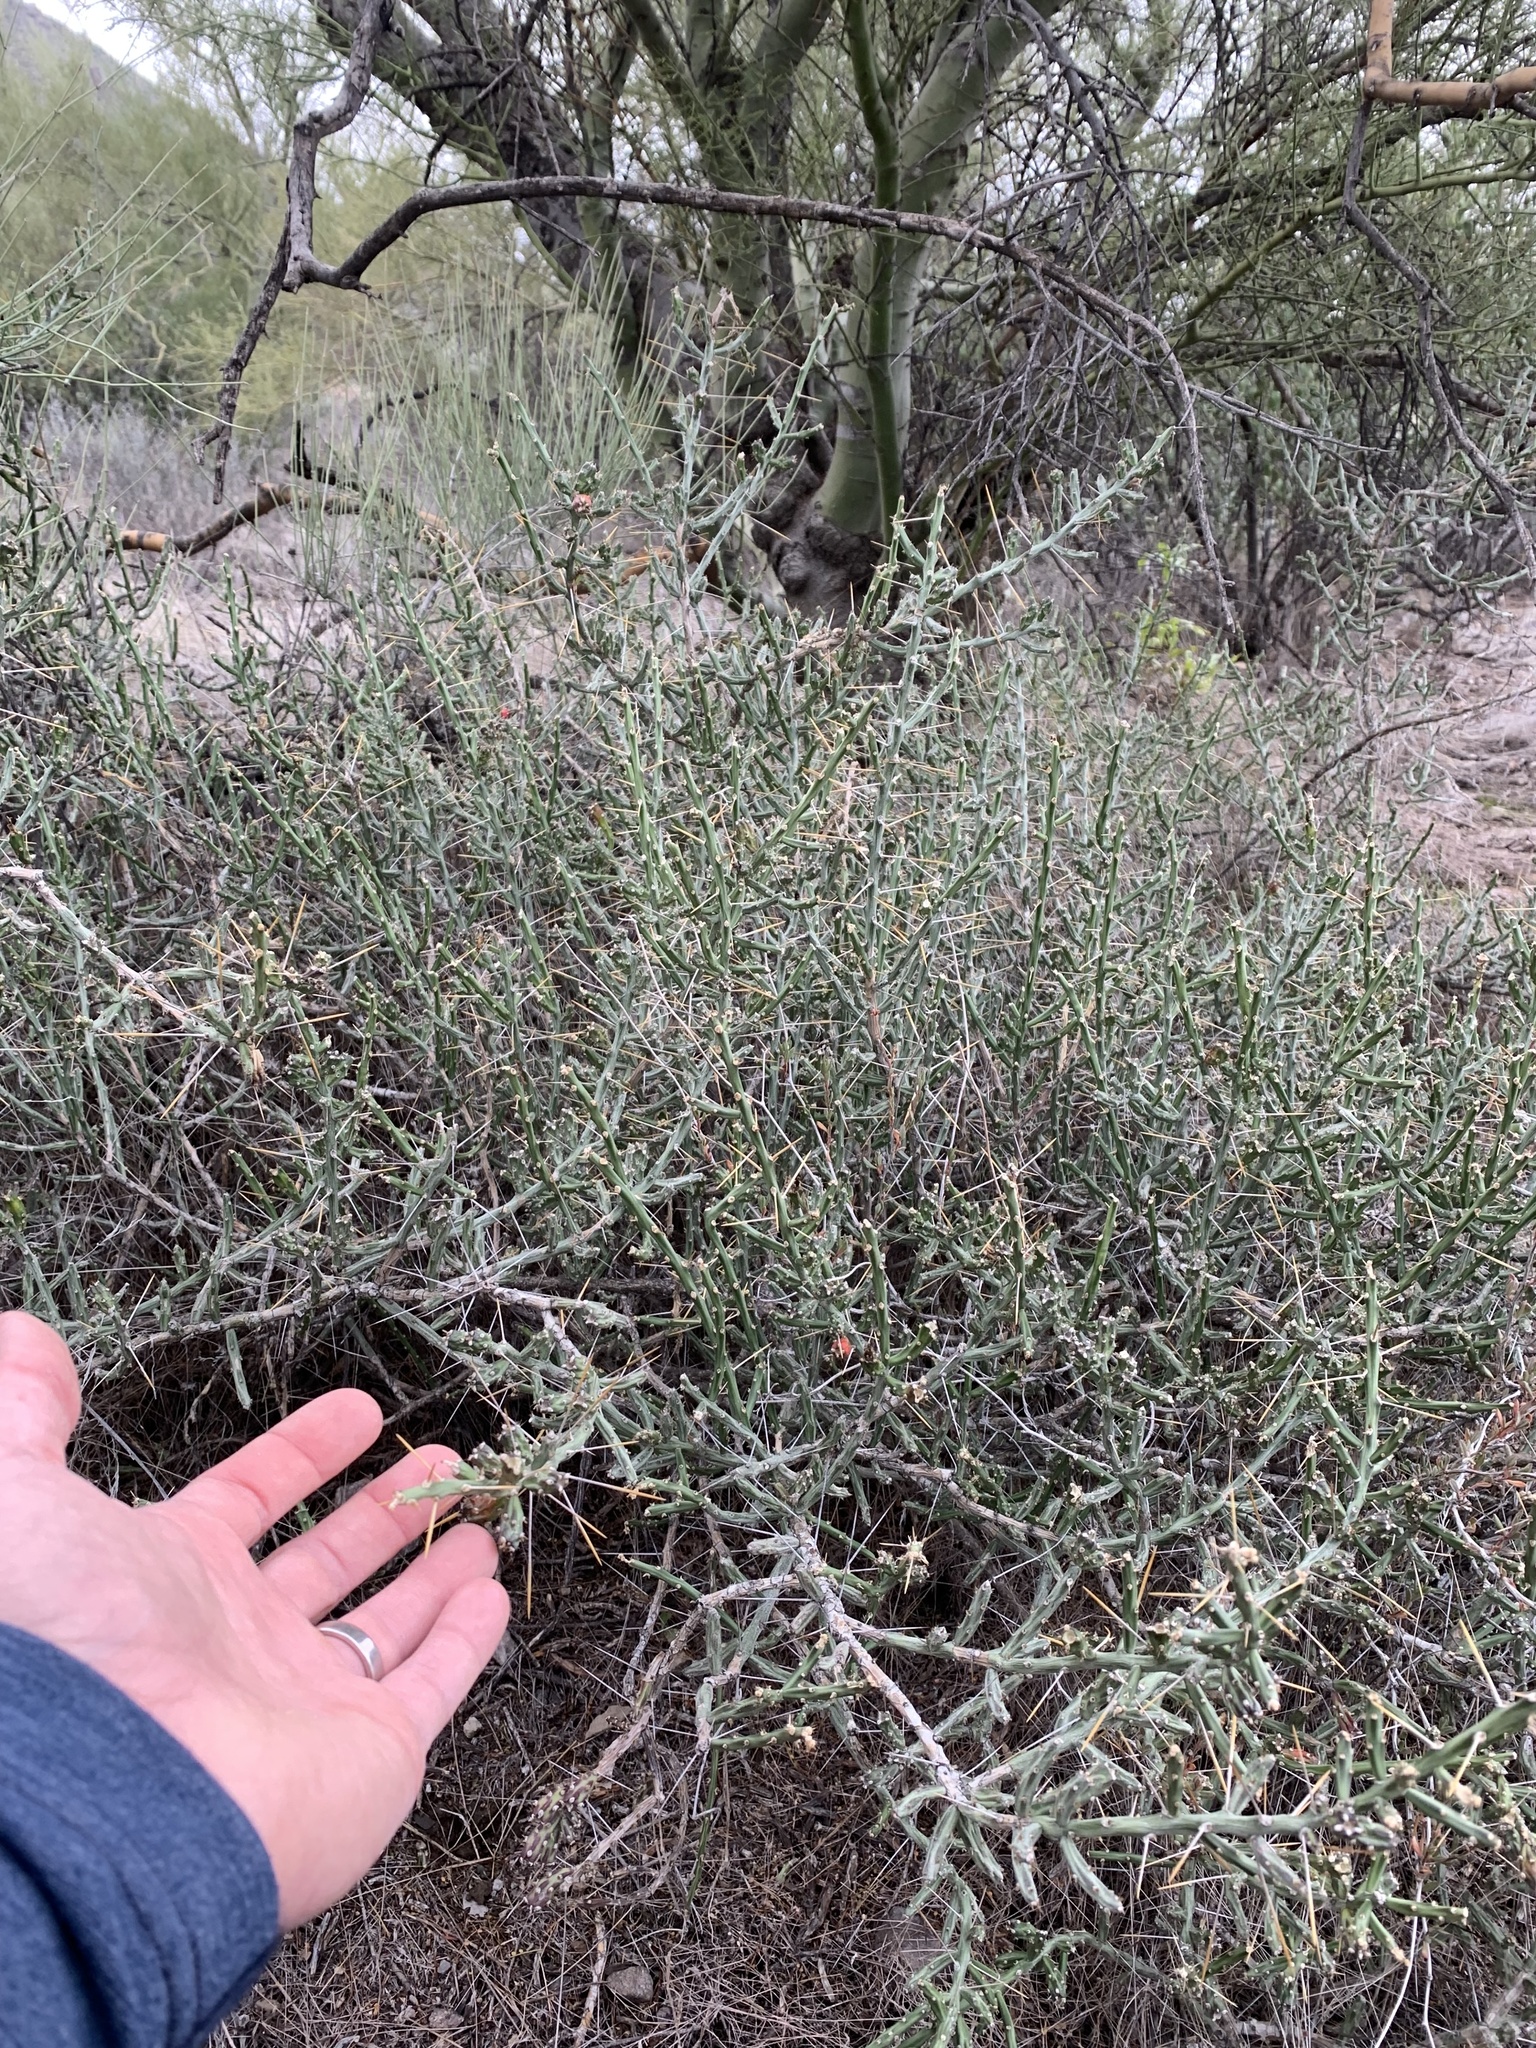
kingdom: Plantae
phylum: Tracheophyta
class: Magnoliopsida
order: Caryophyllales
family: Cactaceae
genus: Cylindropuntia
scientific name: Cylindropuntia leptocaulis
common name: Christmas cactus
